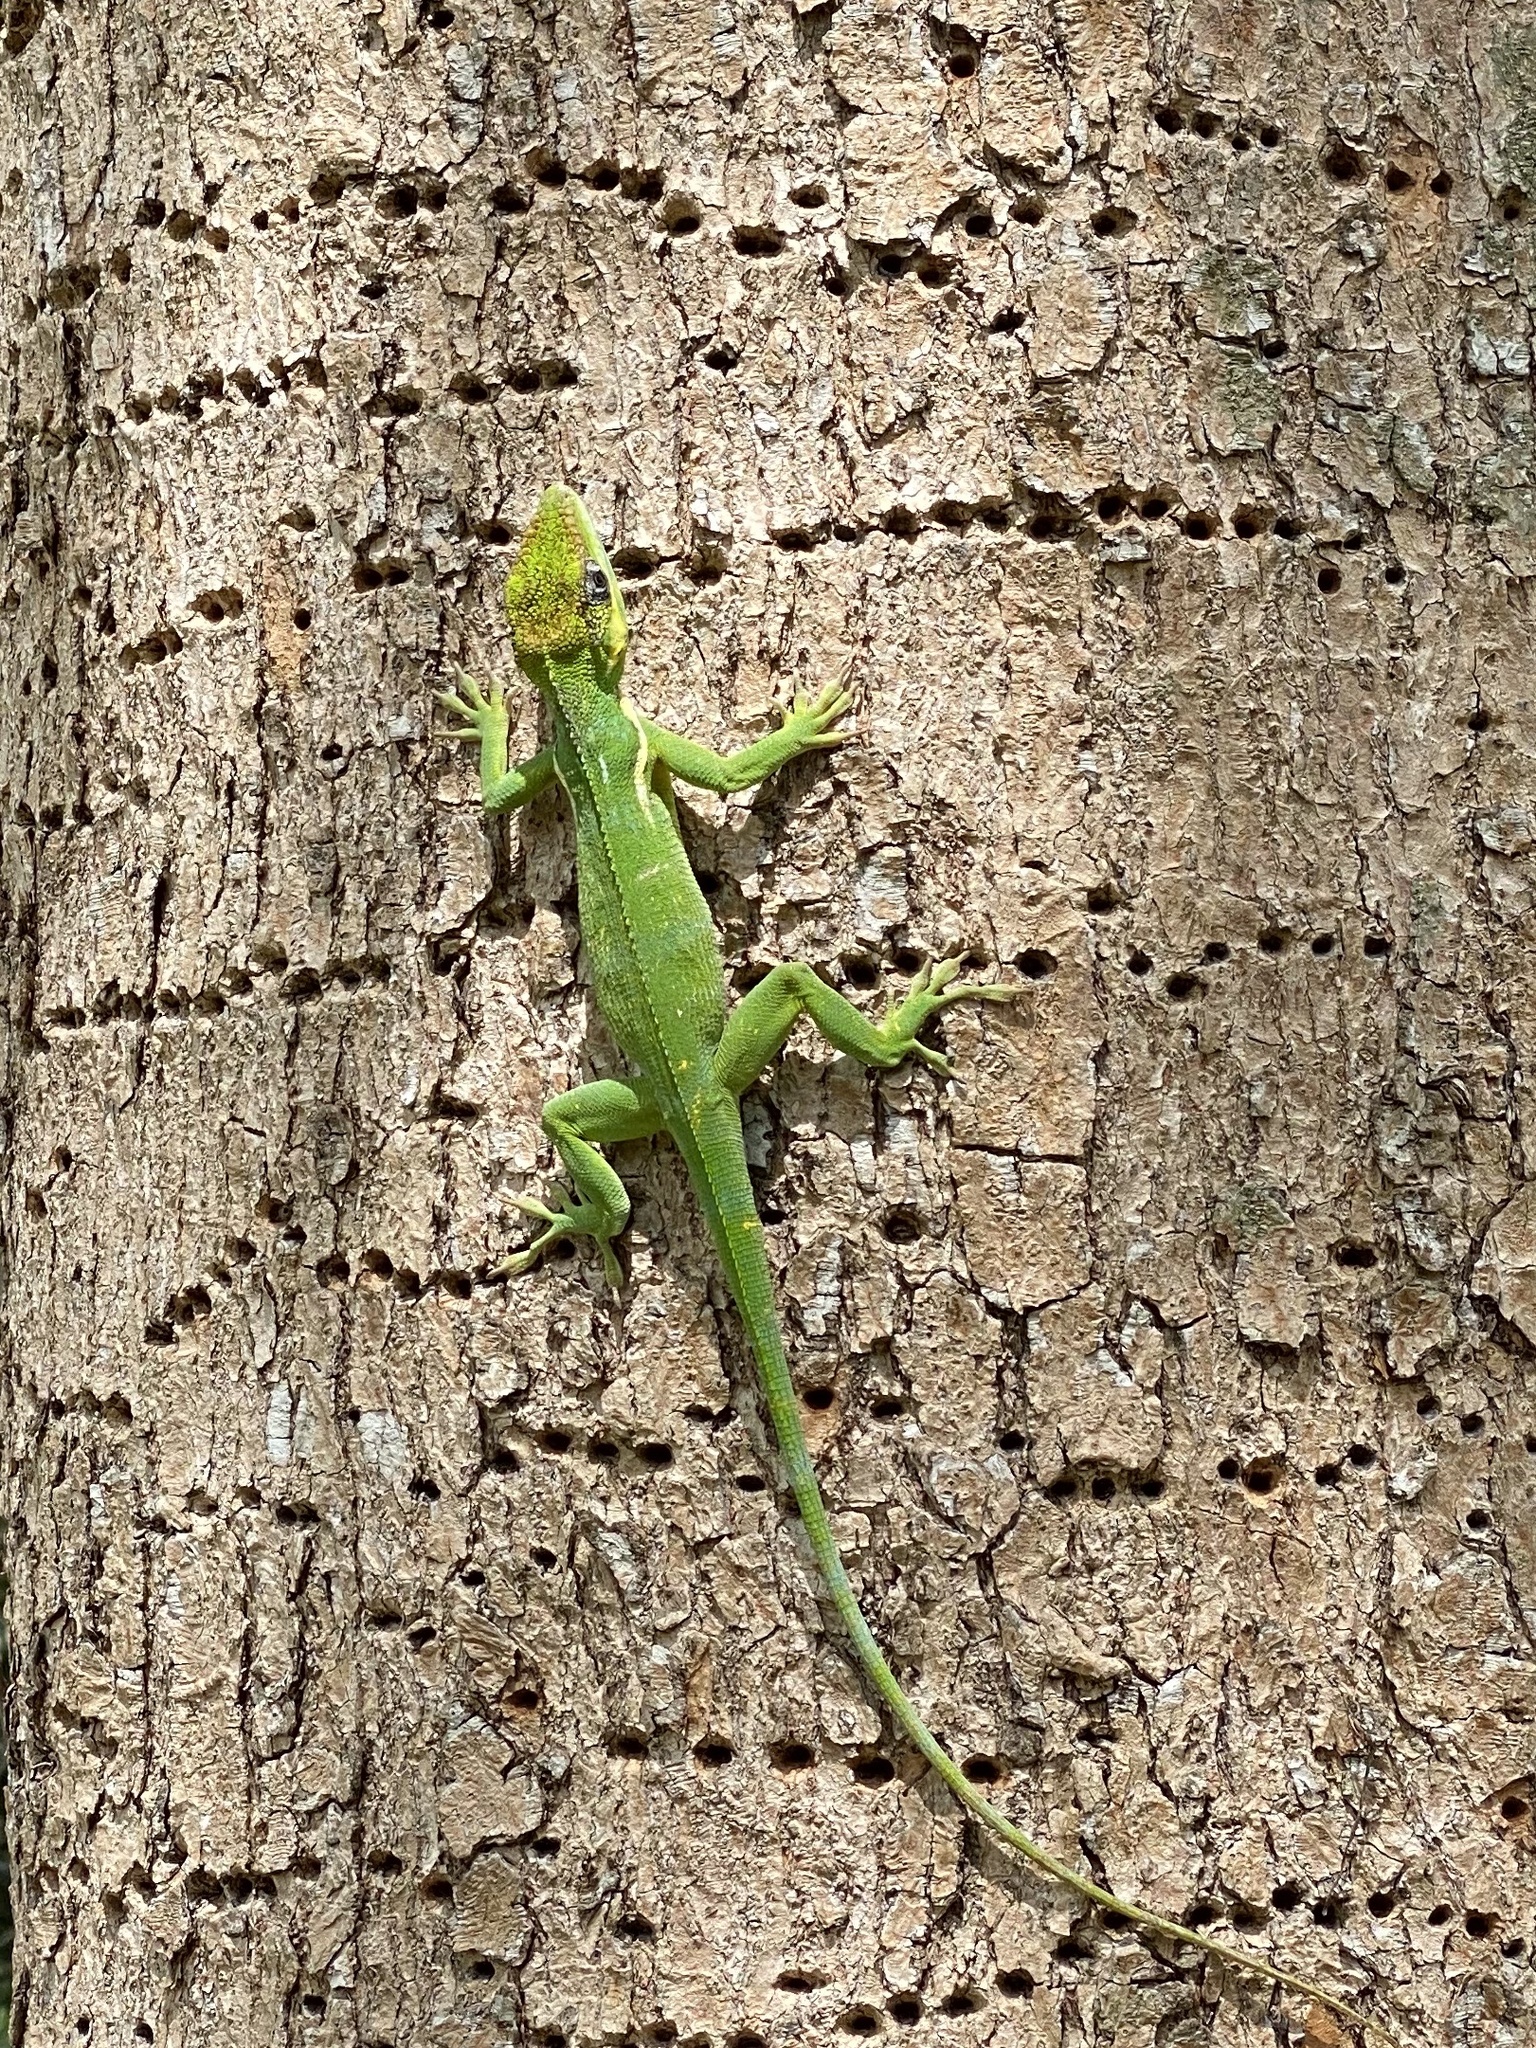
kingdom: Animalia
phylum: Chordata
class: Squamata
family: Dactyloidae
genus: Anolis
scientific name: Anolis equestris
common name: Knight anole
